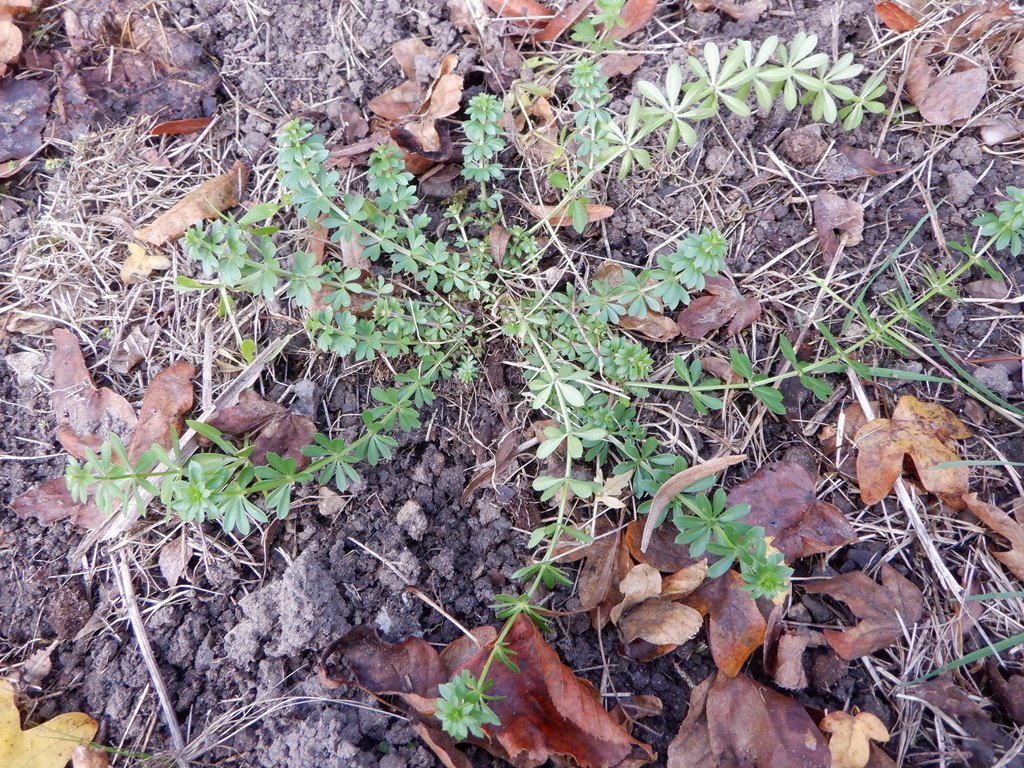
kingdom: Plantae
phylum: Tracheophyta
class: Magnoliopsida
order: Gentianales
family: Rubiaceae
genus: Galium
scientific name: Galium aparine
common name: Cleavers
